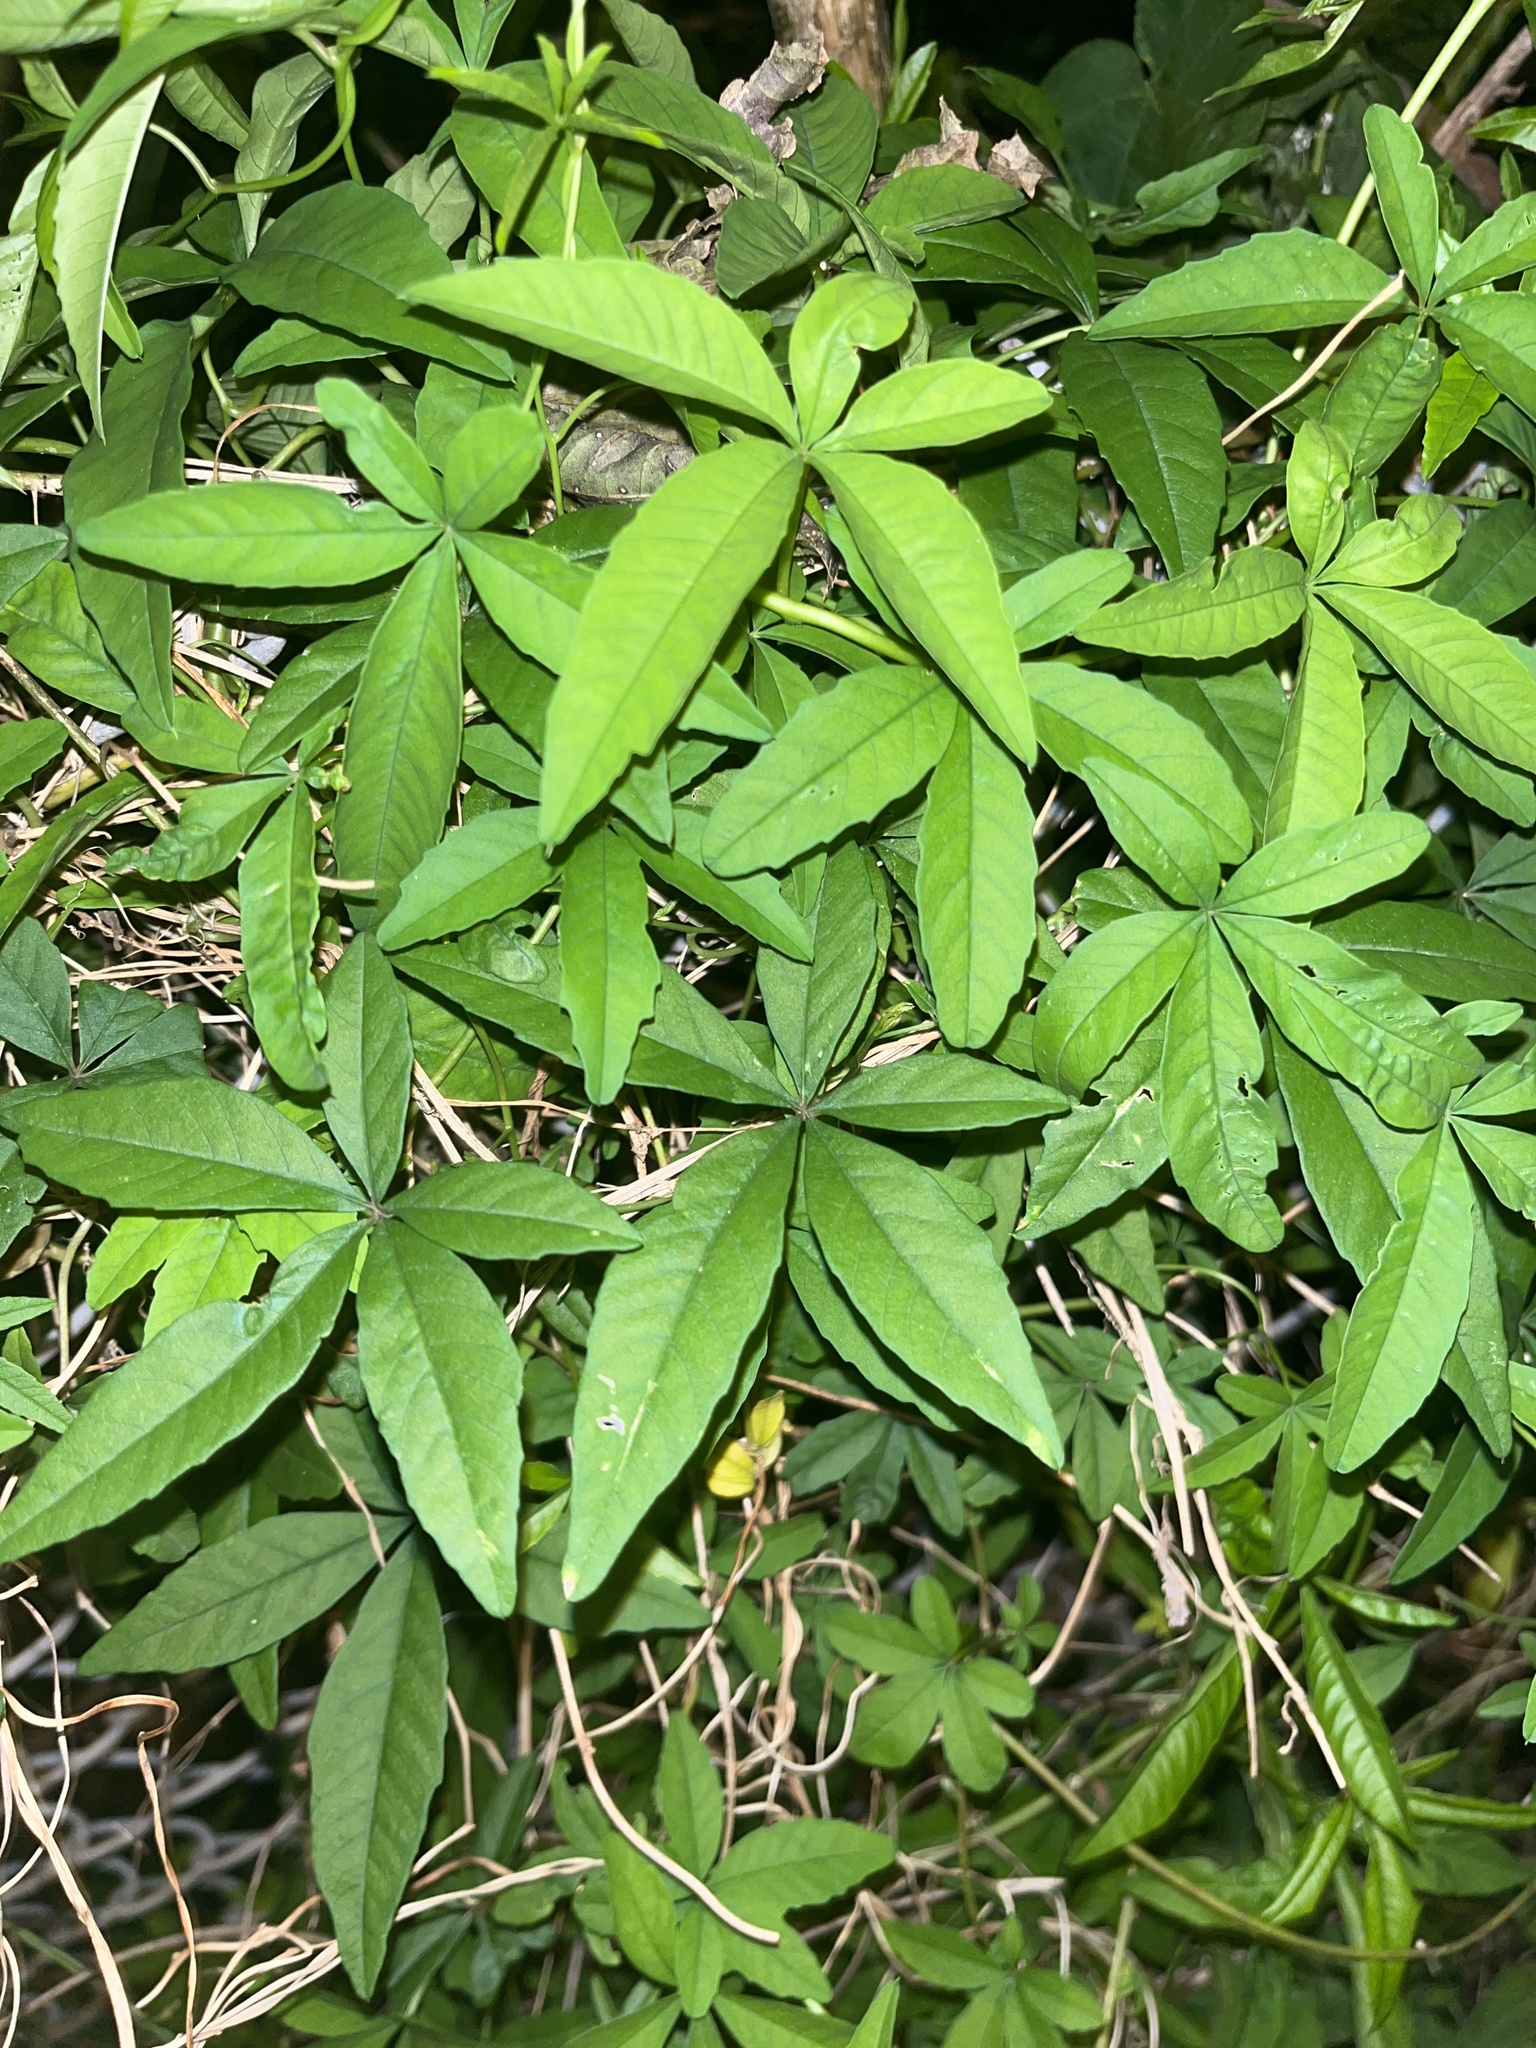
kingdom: Plantae
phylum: Tracheophyta
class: Magnoliopsida
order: Solanales
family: Convolvulaceae
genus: Distimake
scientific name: Distimake quinquefolius
